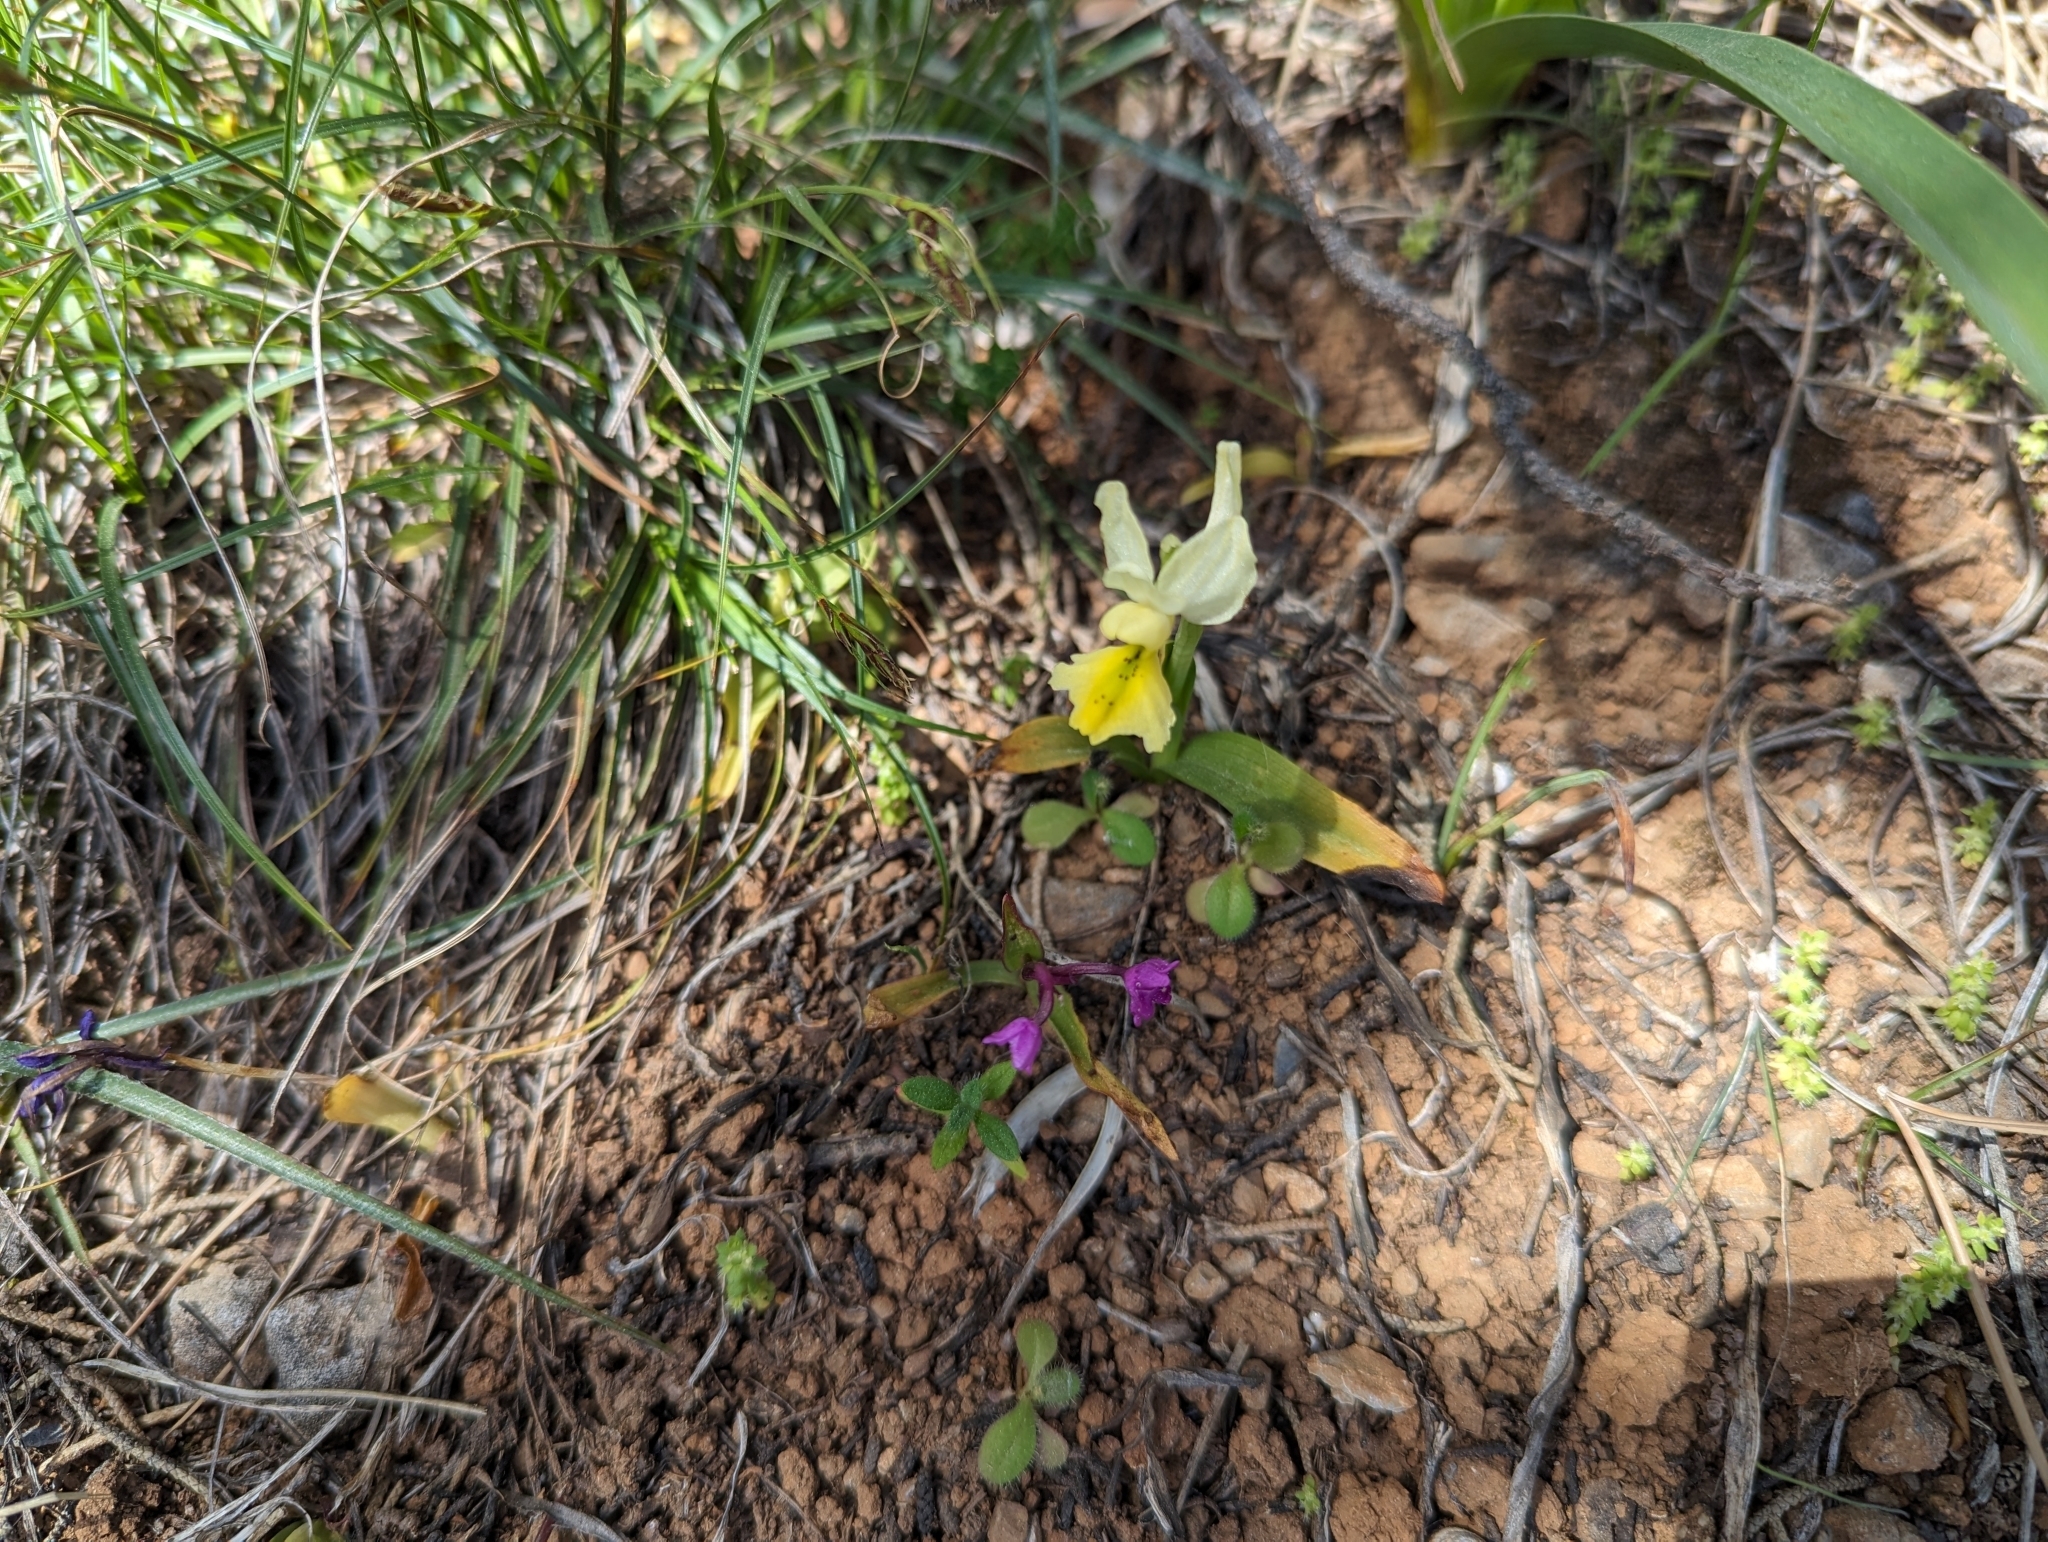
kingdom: Plantae
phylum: Tracheophyta
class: Liliopsida
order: Asparagales
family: Orchidaceae
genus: Orchis
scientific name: Orchis pauciflora
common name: Few-flowered orchid
